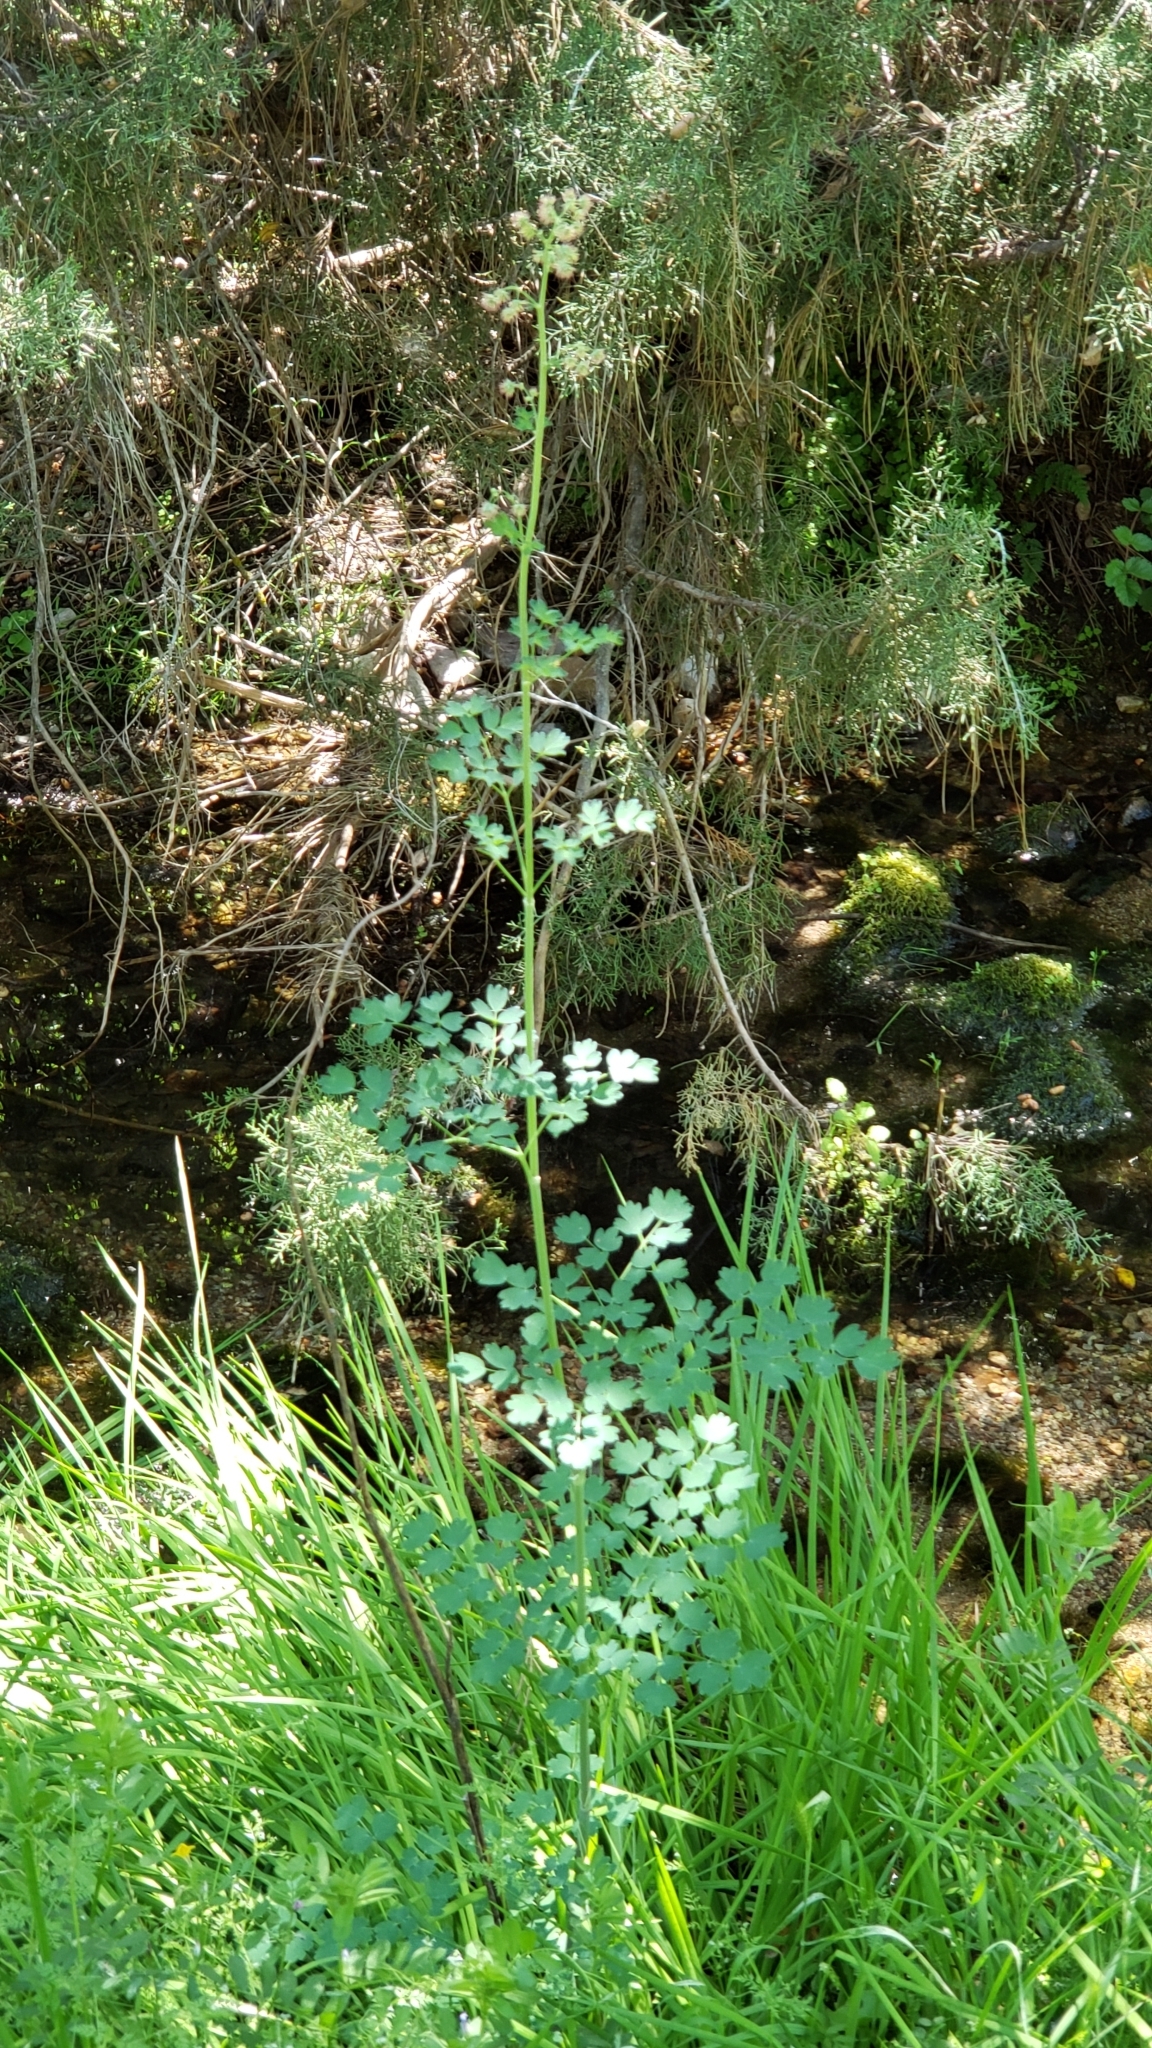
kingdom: Plantae
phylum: Tracheophyta
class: Magnoliopsida
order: Ranunculales
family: Ranunculaceae
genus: Thalictrum
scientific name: Thalictrum fendleri
